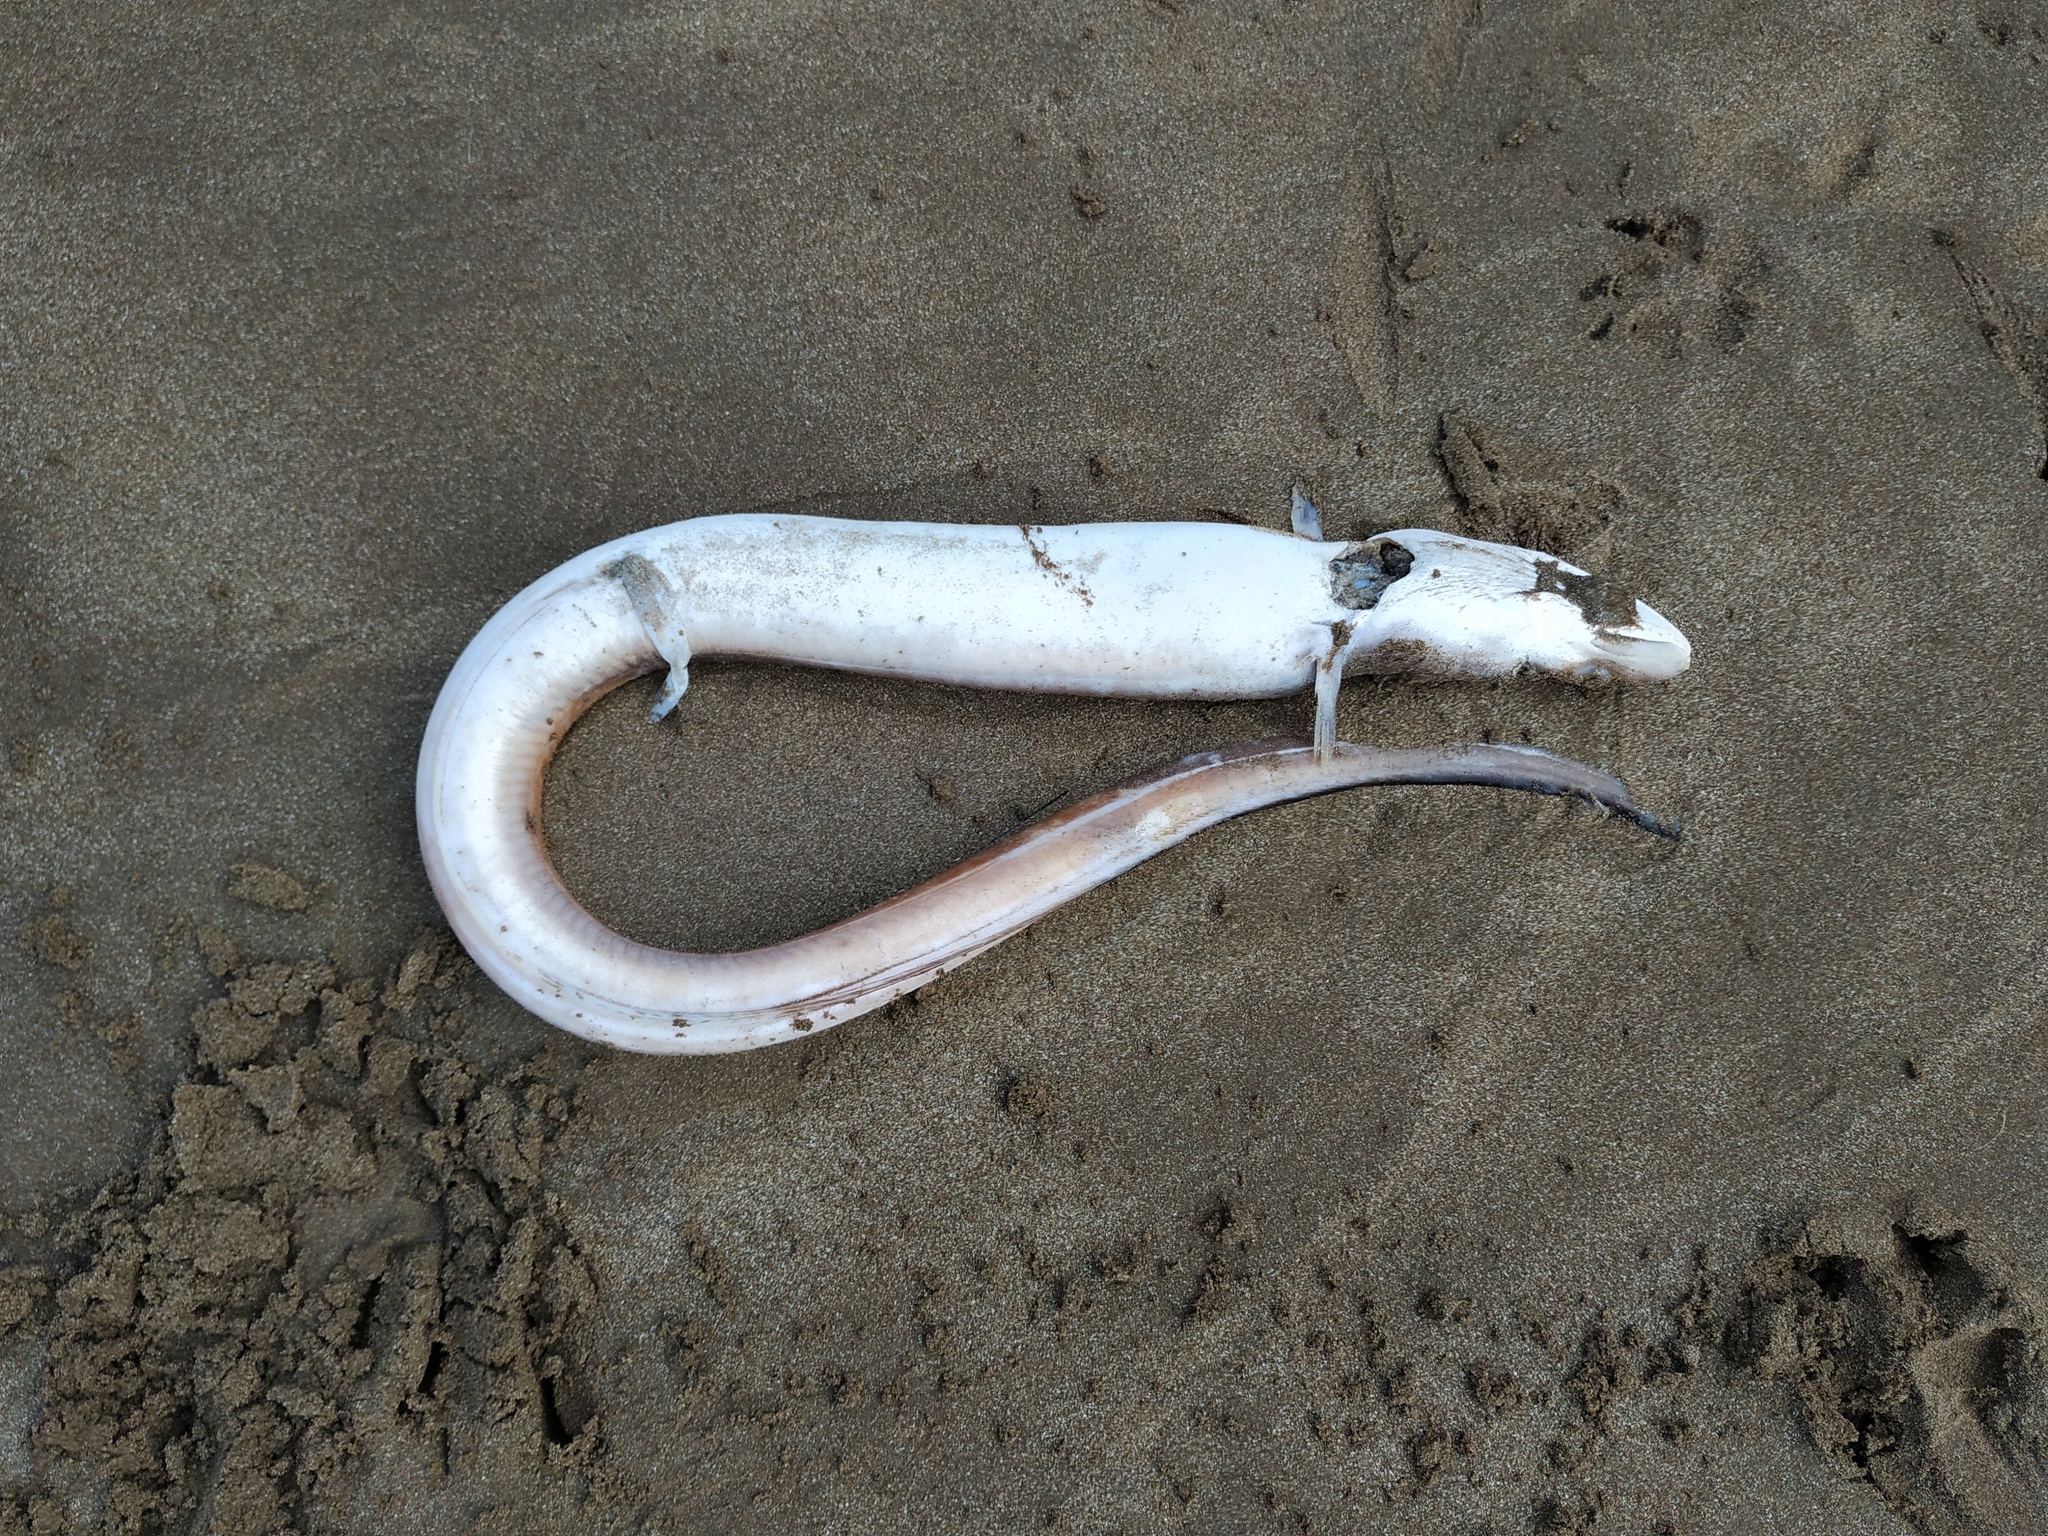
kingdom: Animalia
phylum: Chordata
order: Anguilliformes
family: Congridae
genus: Conger
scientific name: Conger orbignianus
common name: Argentine conger
